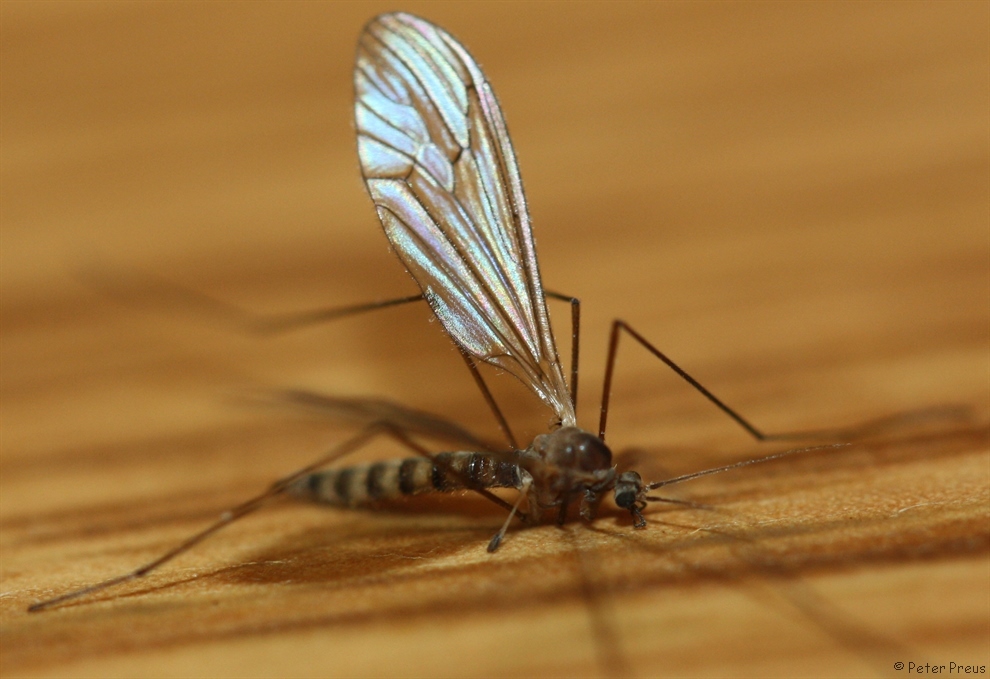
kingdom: Animalia
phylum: Arthropoda
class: Insecta
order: Diptera
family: Trichoceridae
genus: Trichocera
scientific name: Trichocera annulata
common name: Winter gnat
